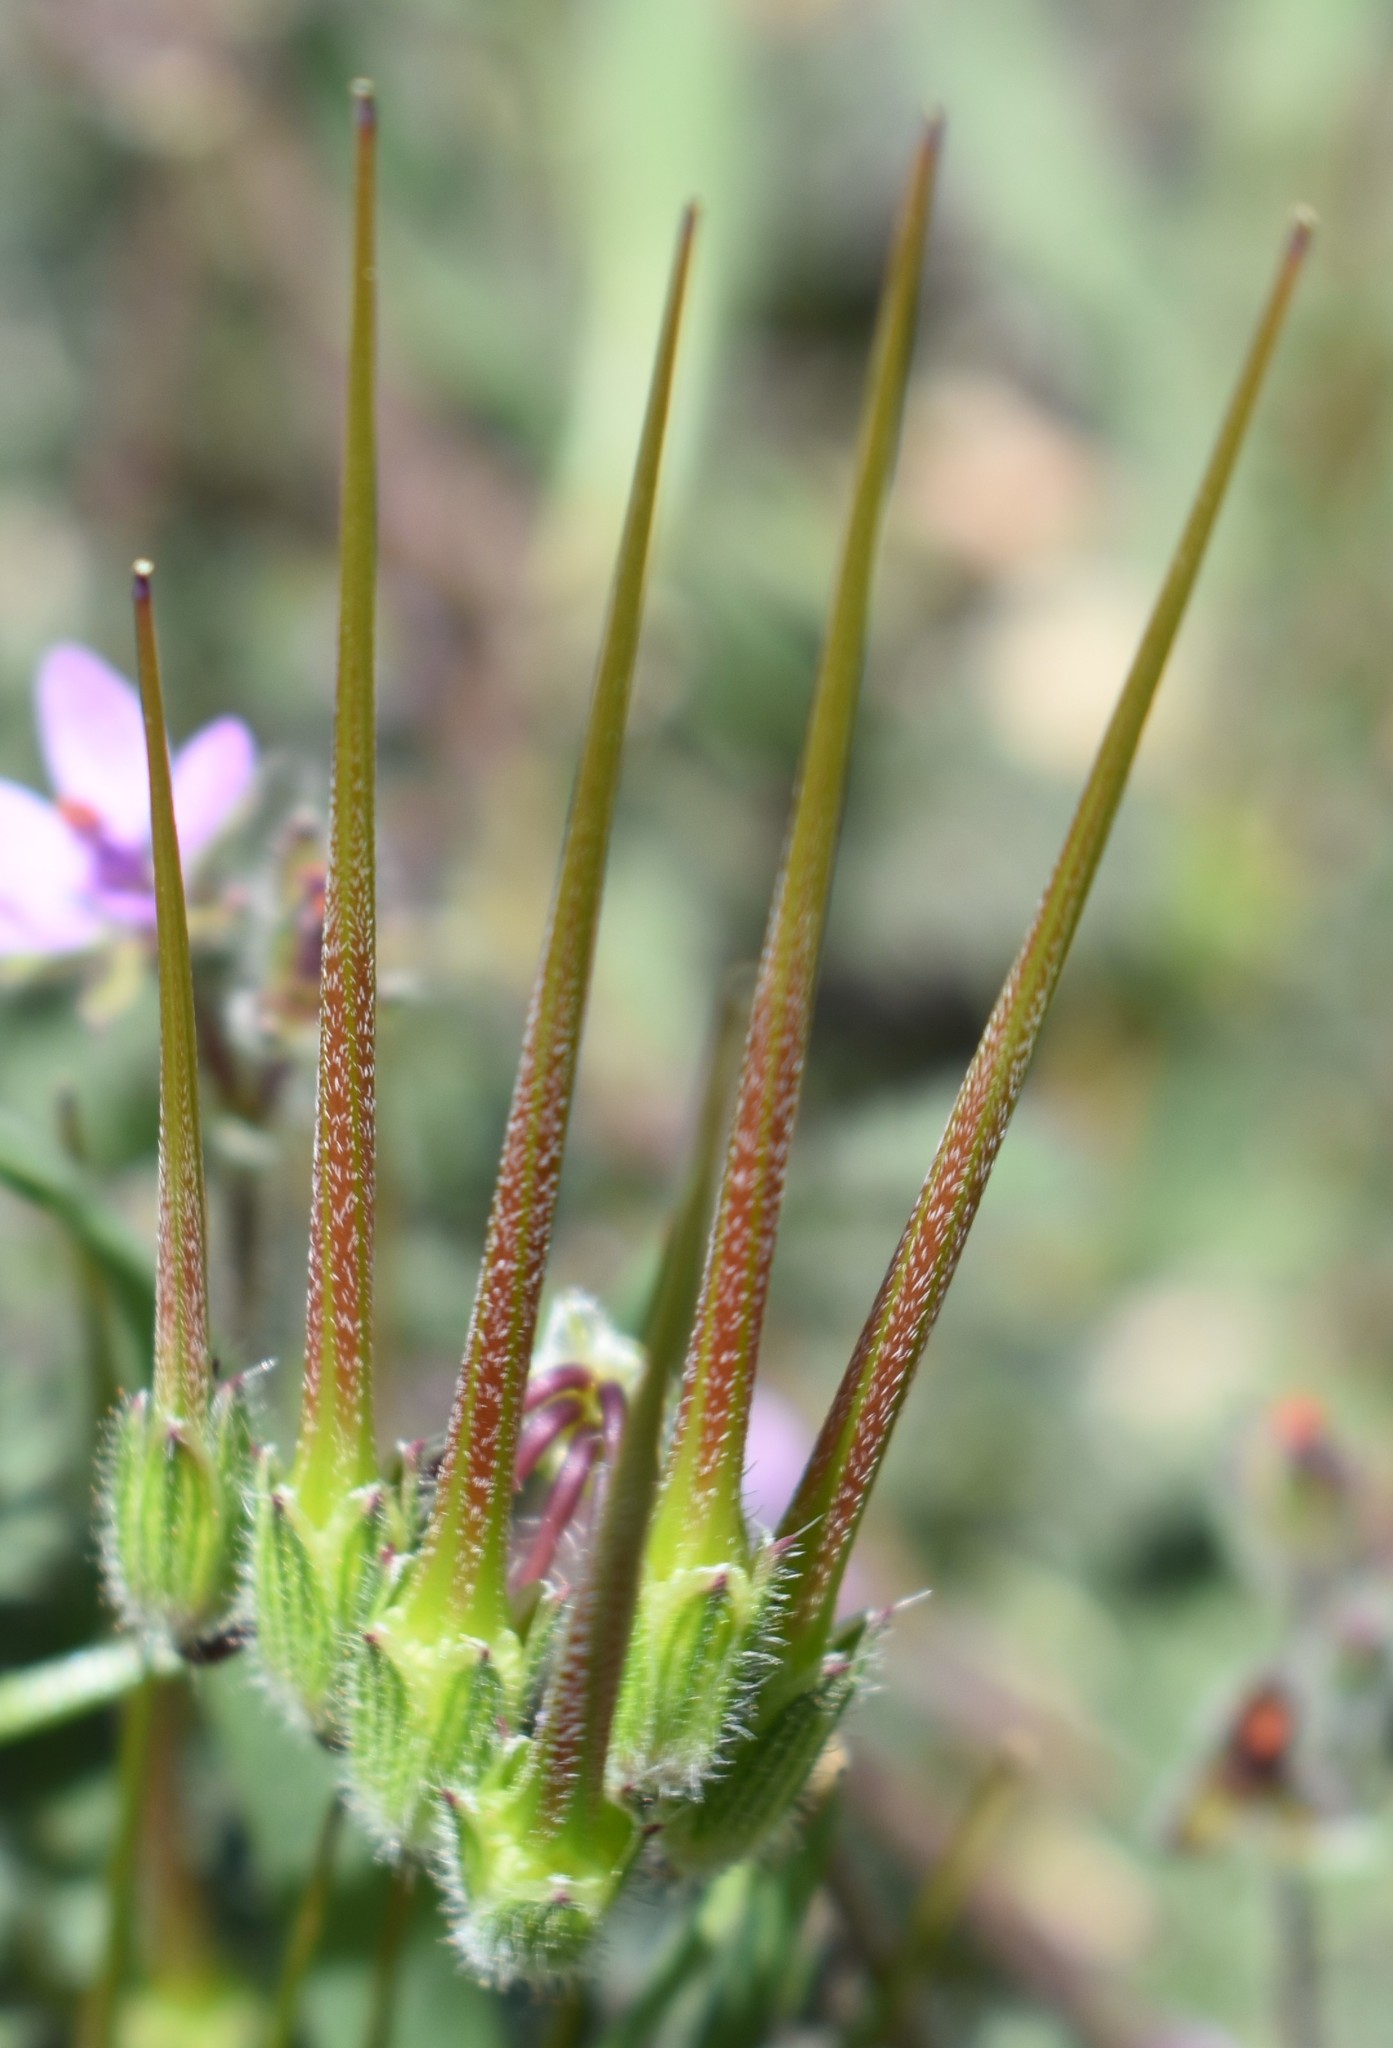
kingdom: Plantae
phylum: Tracheophyta
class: Magnoliopsida
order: Geraniales
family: Geraniaceae
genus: Erodium
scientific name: Erodium cicutarium
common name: Common stork's-bill
